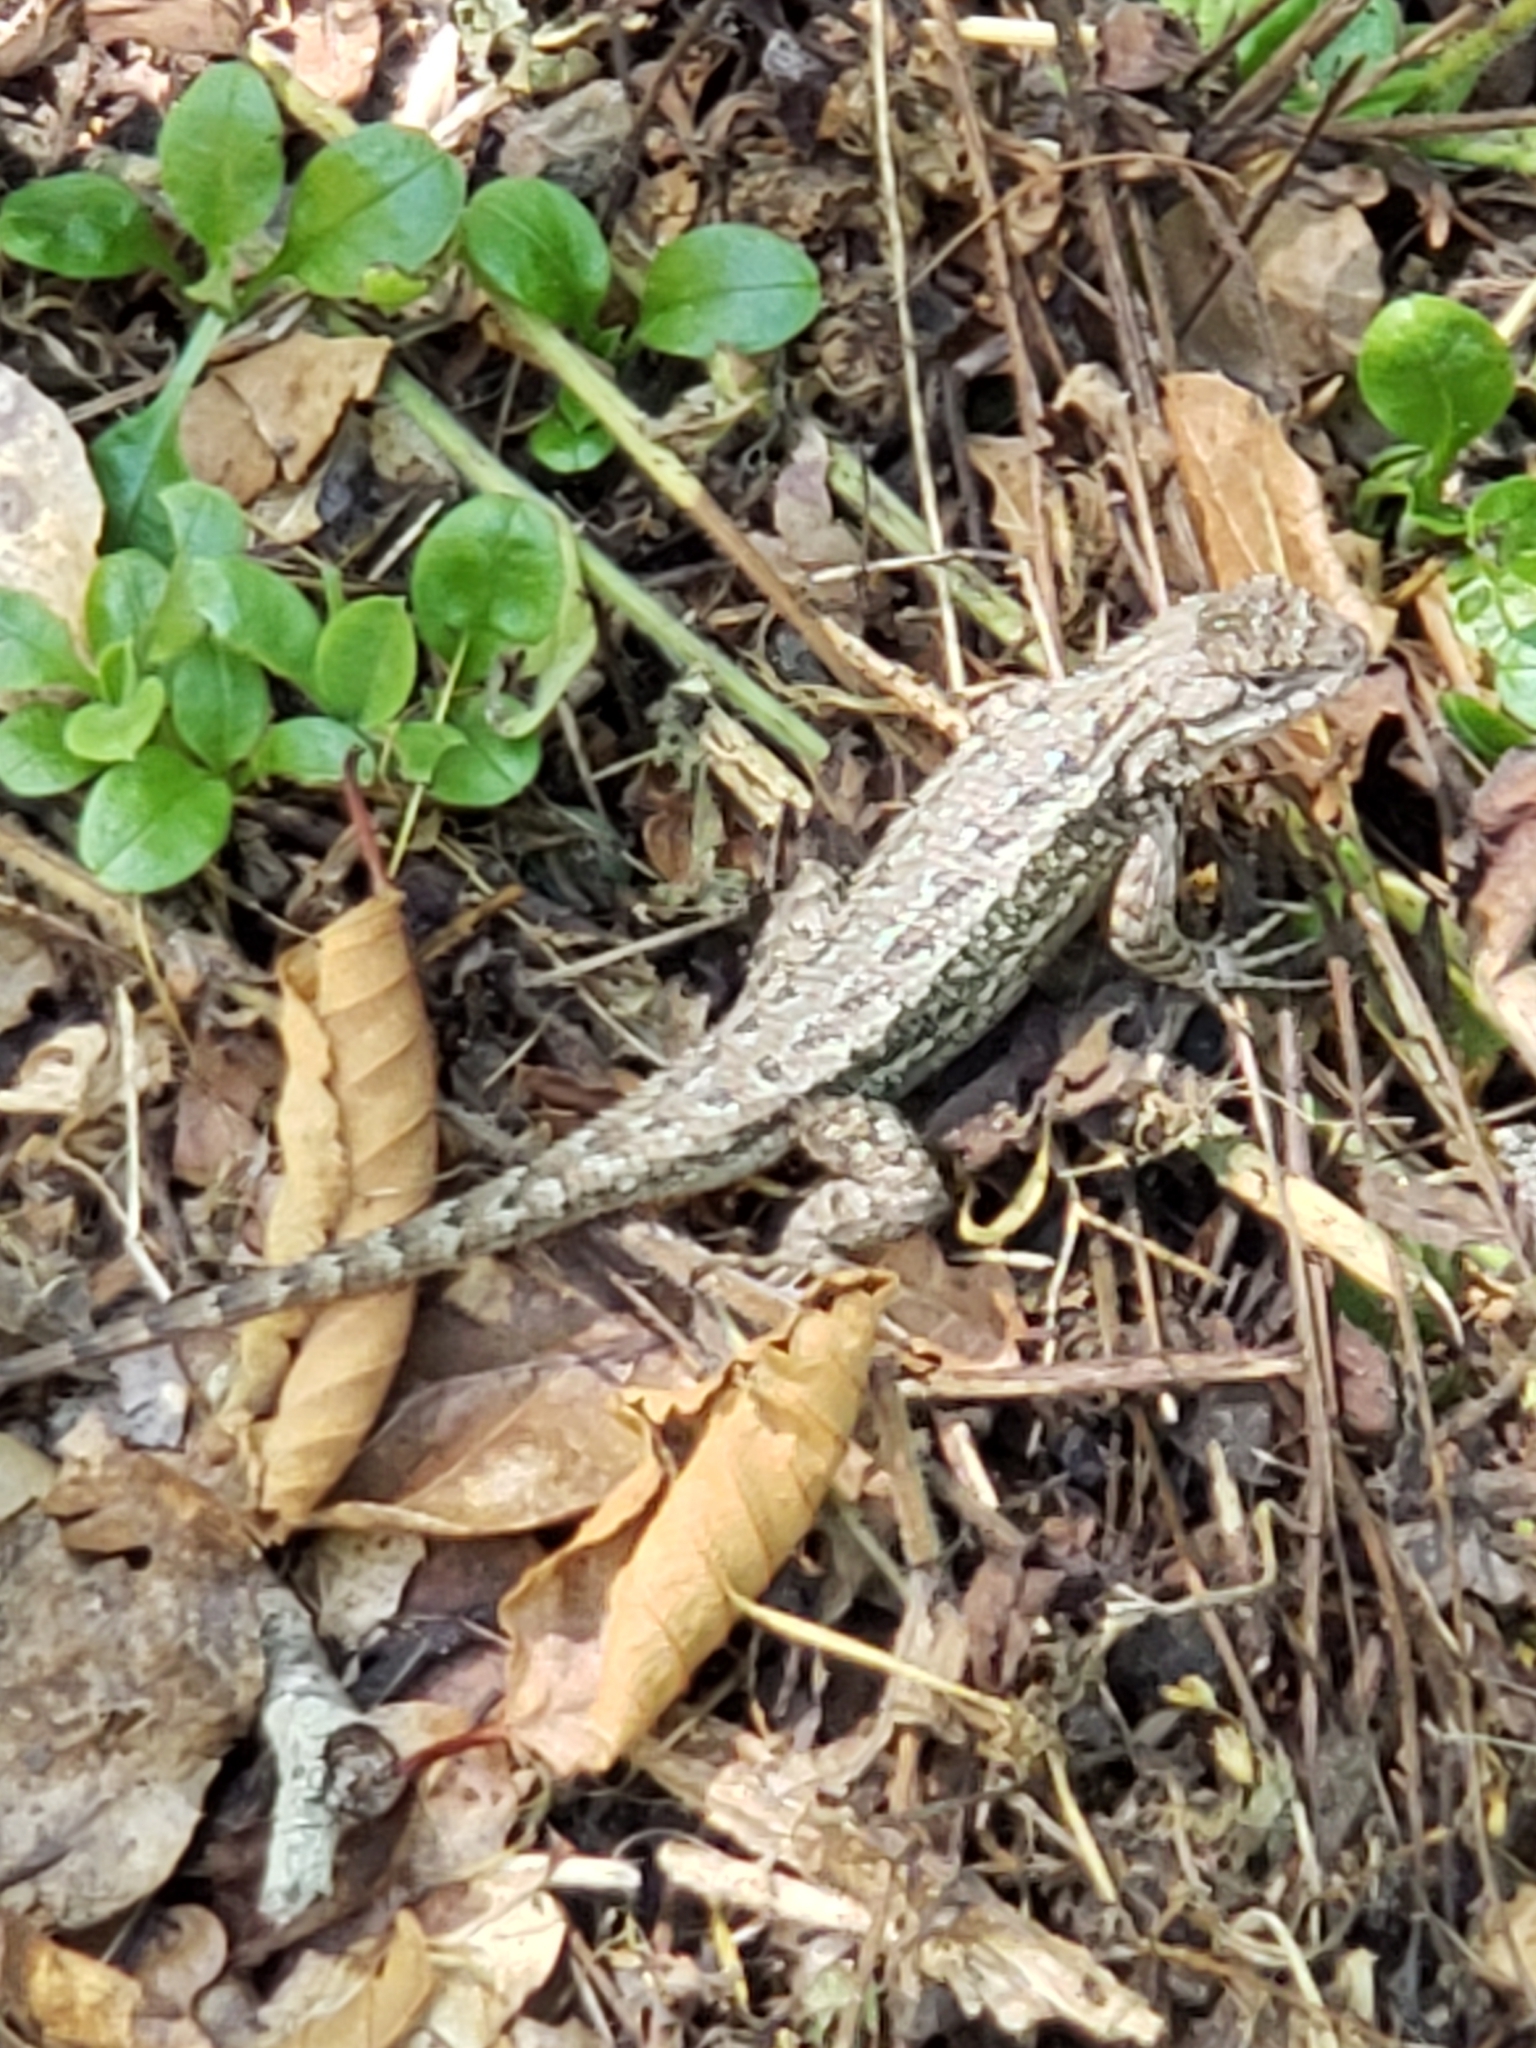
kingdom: Animalia
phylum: Chordata
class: Squamata
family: Phrynosomatidae
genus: Sceloporus
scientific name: Sceloporus occidentalis
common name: Western fence lizard
